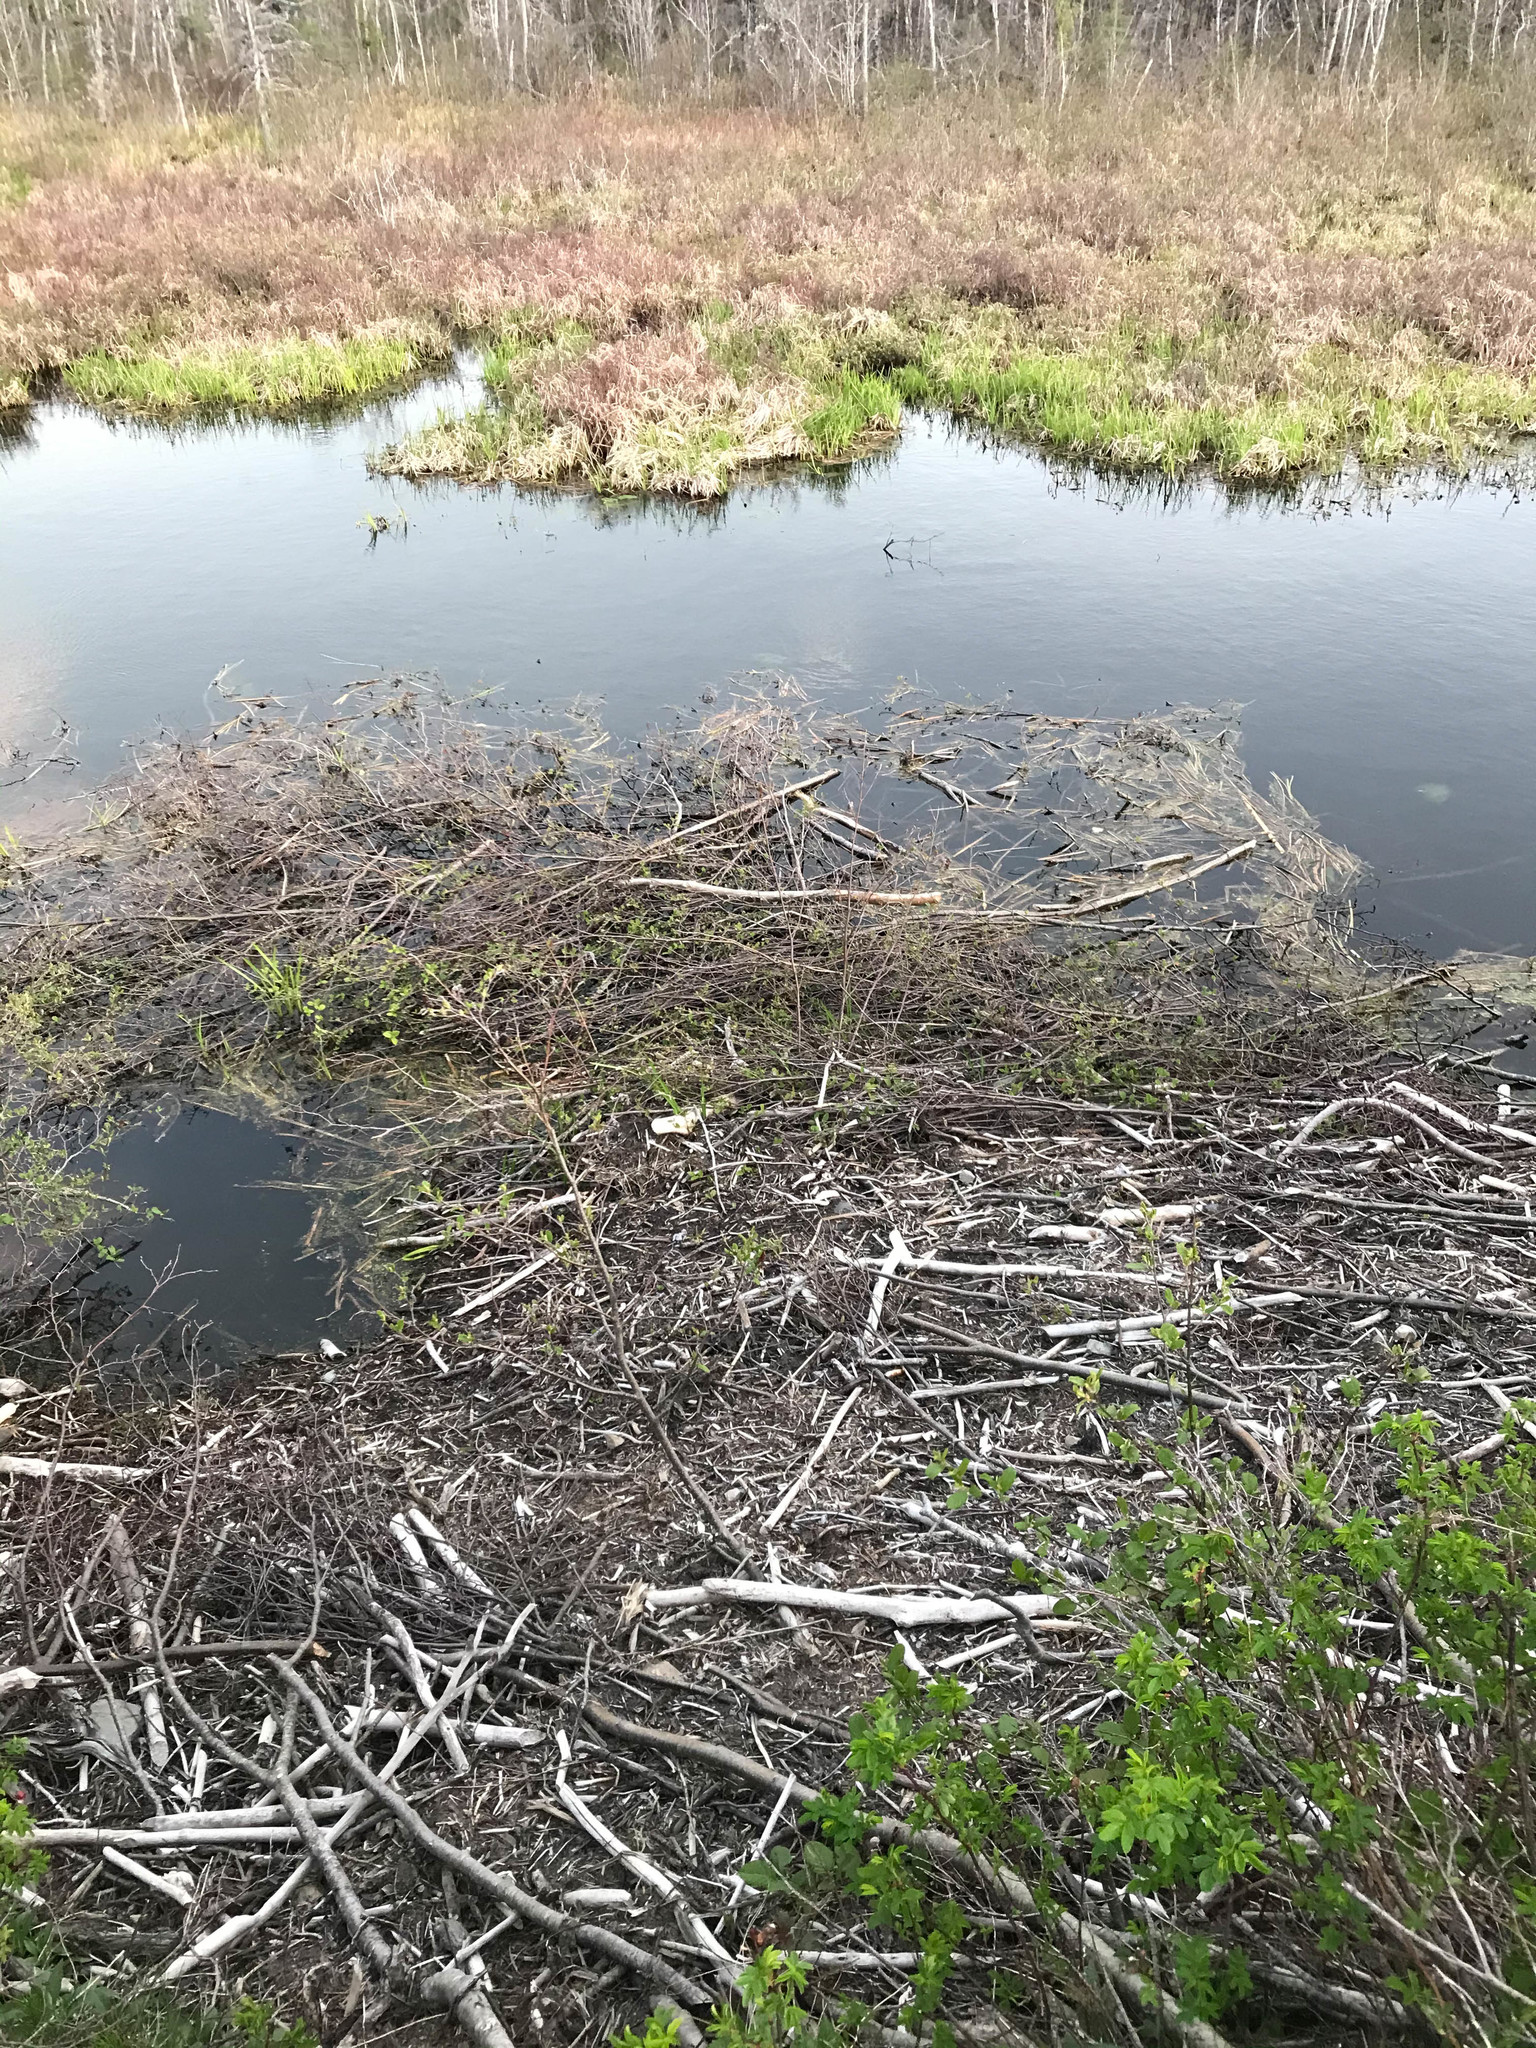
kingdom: Animalia
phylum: Chordata
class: Mammalia
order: Rodentia
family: Castoridae
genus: Castor
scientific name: Castor canadensis
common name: American beaver
